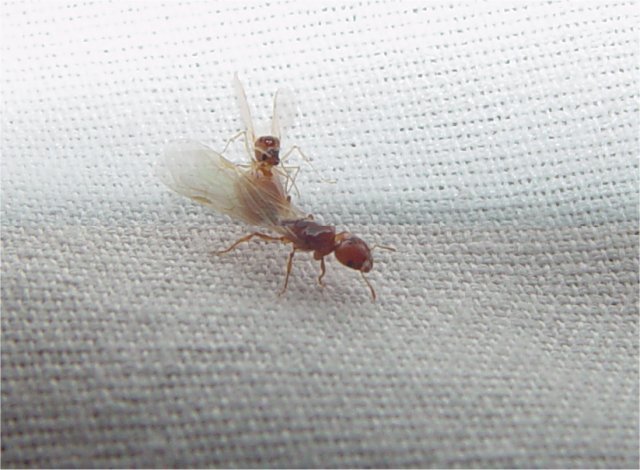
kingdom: Animalia
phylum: Arthropoda
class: Insecta
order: Hymenoptera
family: Formicidae
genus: Pheidole
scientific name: Pheidole cerebrosior
